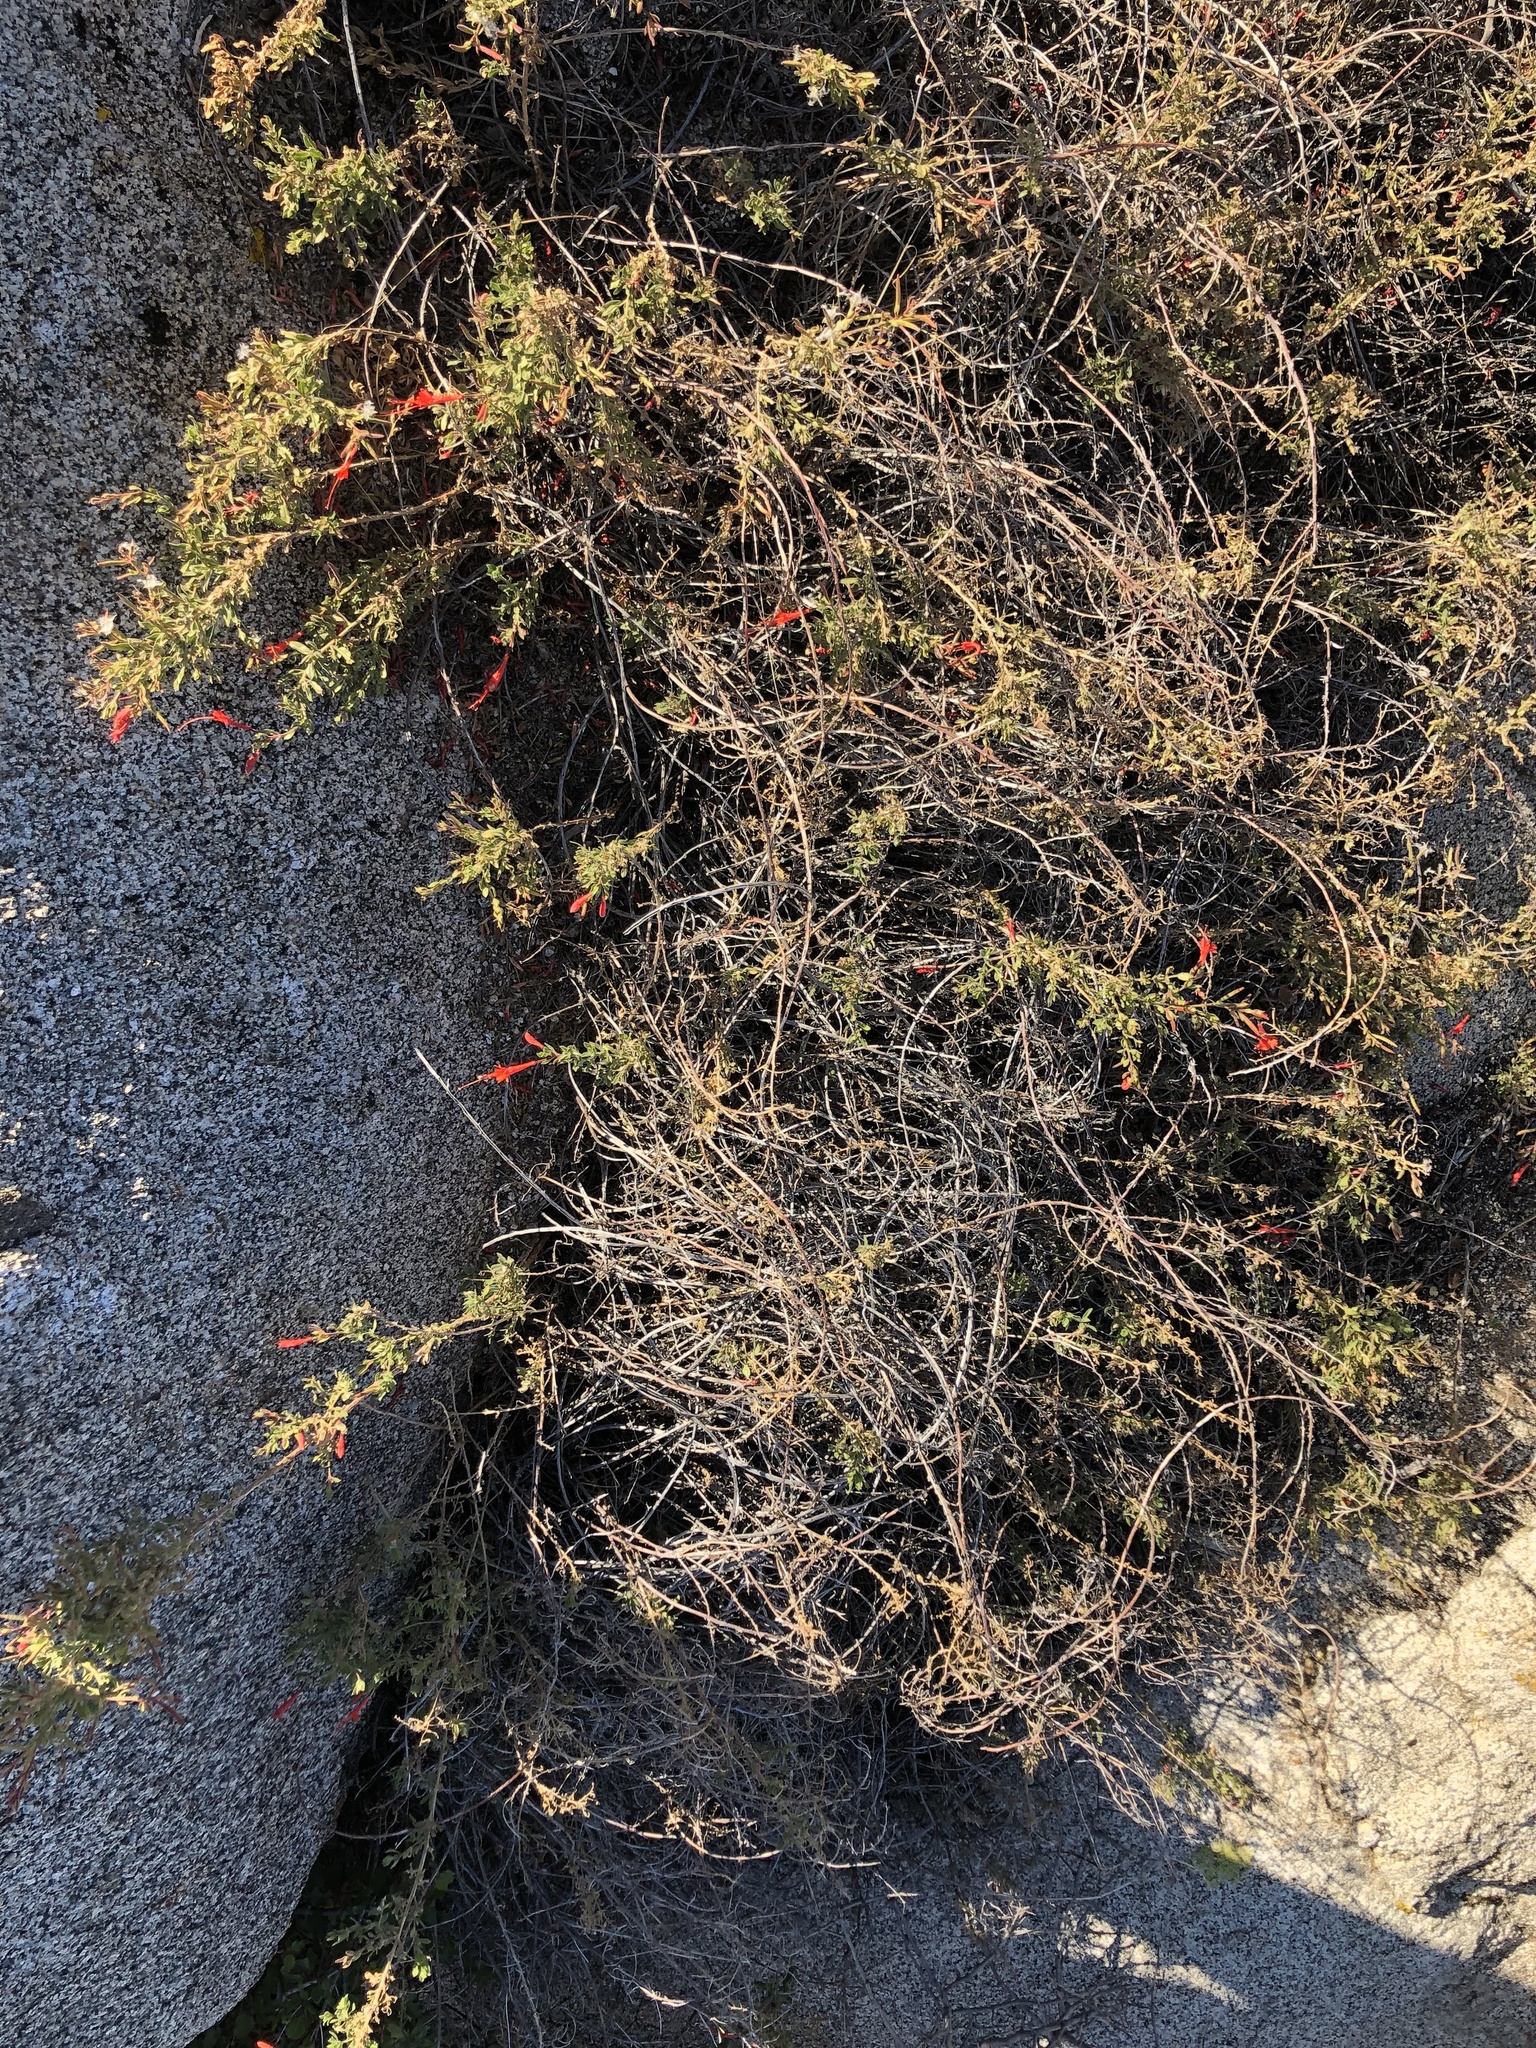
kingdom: Plantae
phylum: Tracheophyta
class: Magnoliopsida
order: Myrtales
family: Onagraceae
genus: Epilobium
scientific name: Epilobium canum
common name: California-fuchsia
